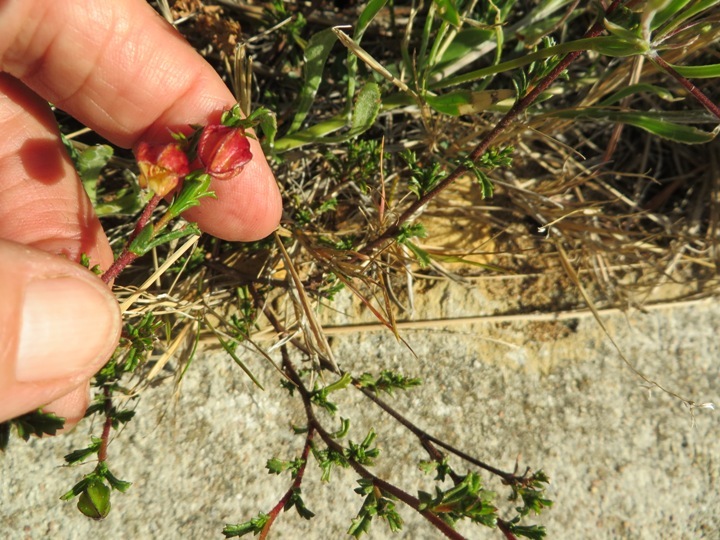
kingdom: Plantae
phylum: Tracheophyta
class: Magnoliopsida
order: Malvales
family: Malvaceae
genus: Hermannia
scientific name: Hermannia alnifolia
